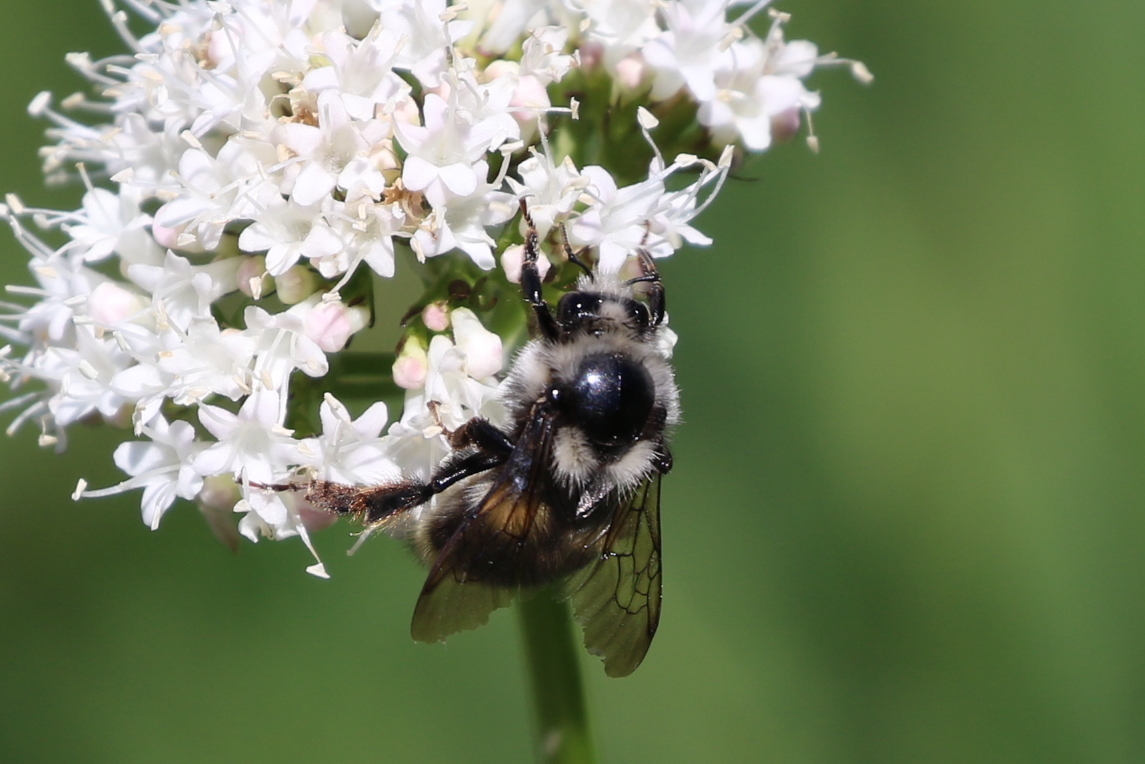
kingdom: Animalia
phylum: Arthropoda
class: Insecta
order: Hymenoptera
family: Apidae
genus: Bombus
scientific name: Bombus vancouverensis
